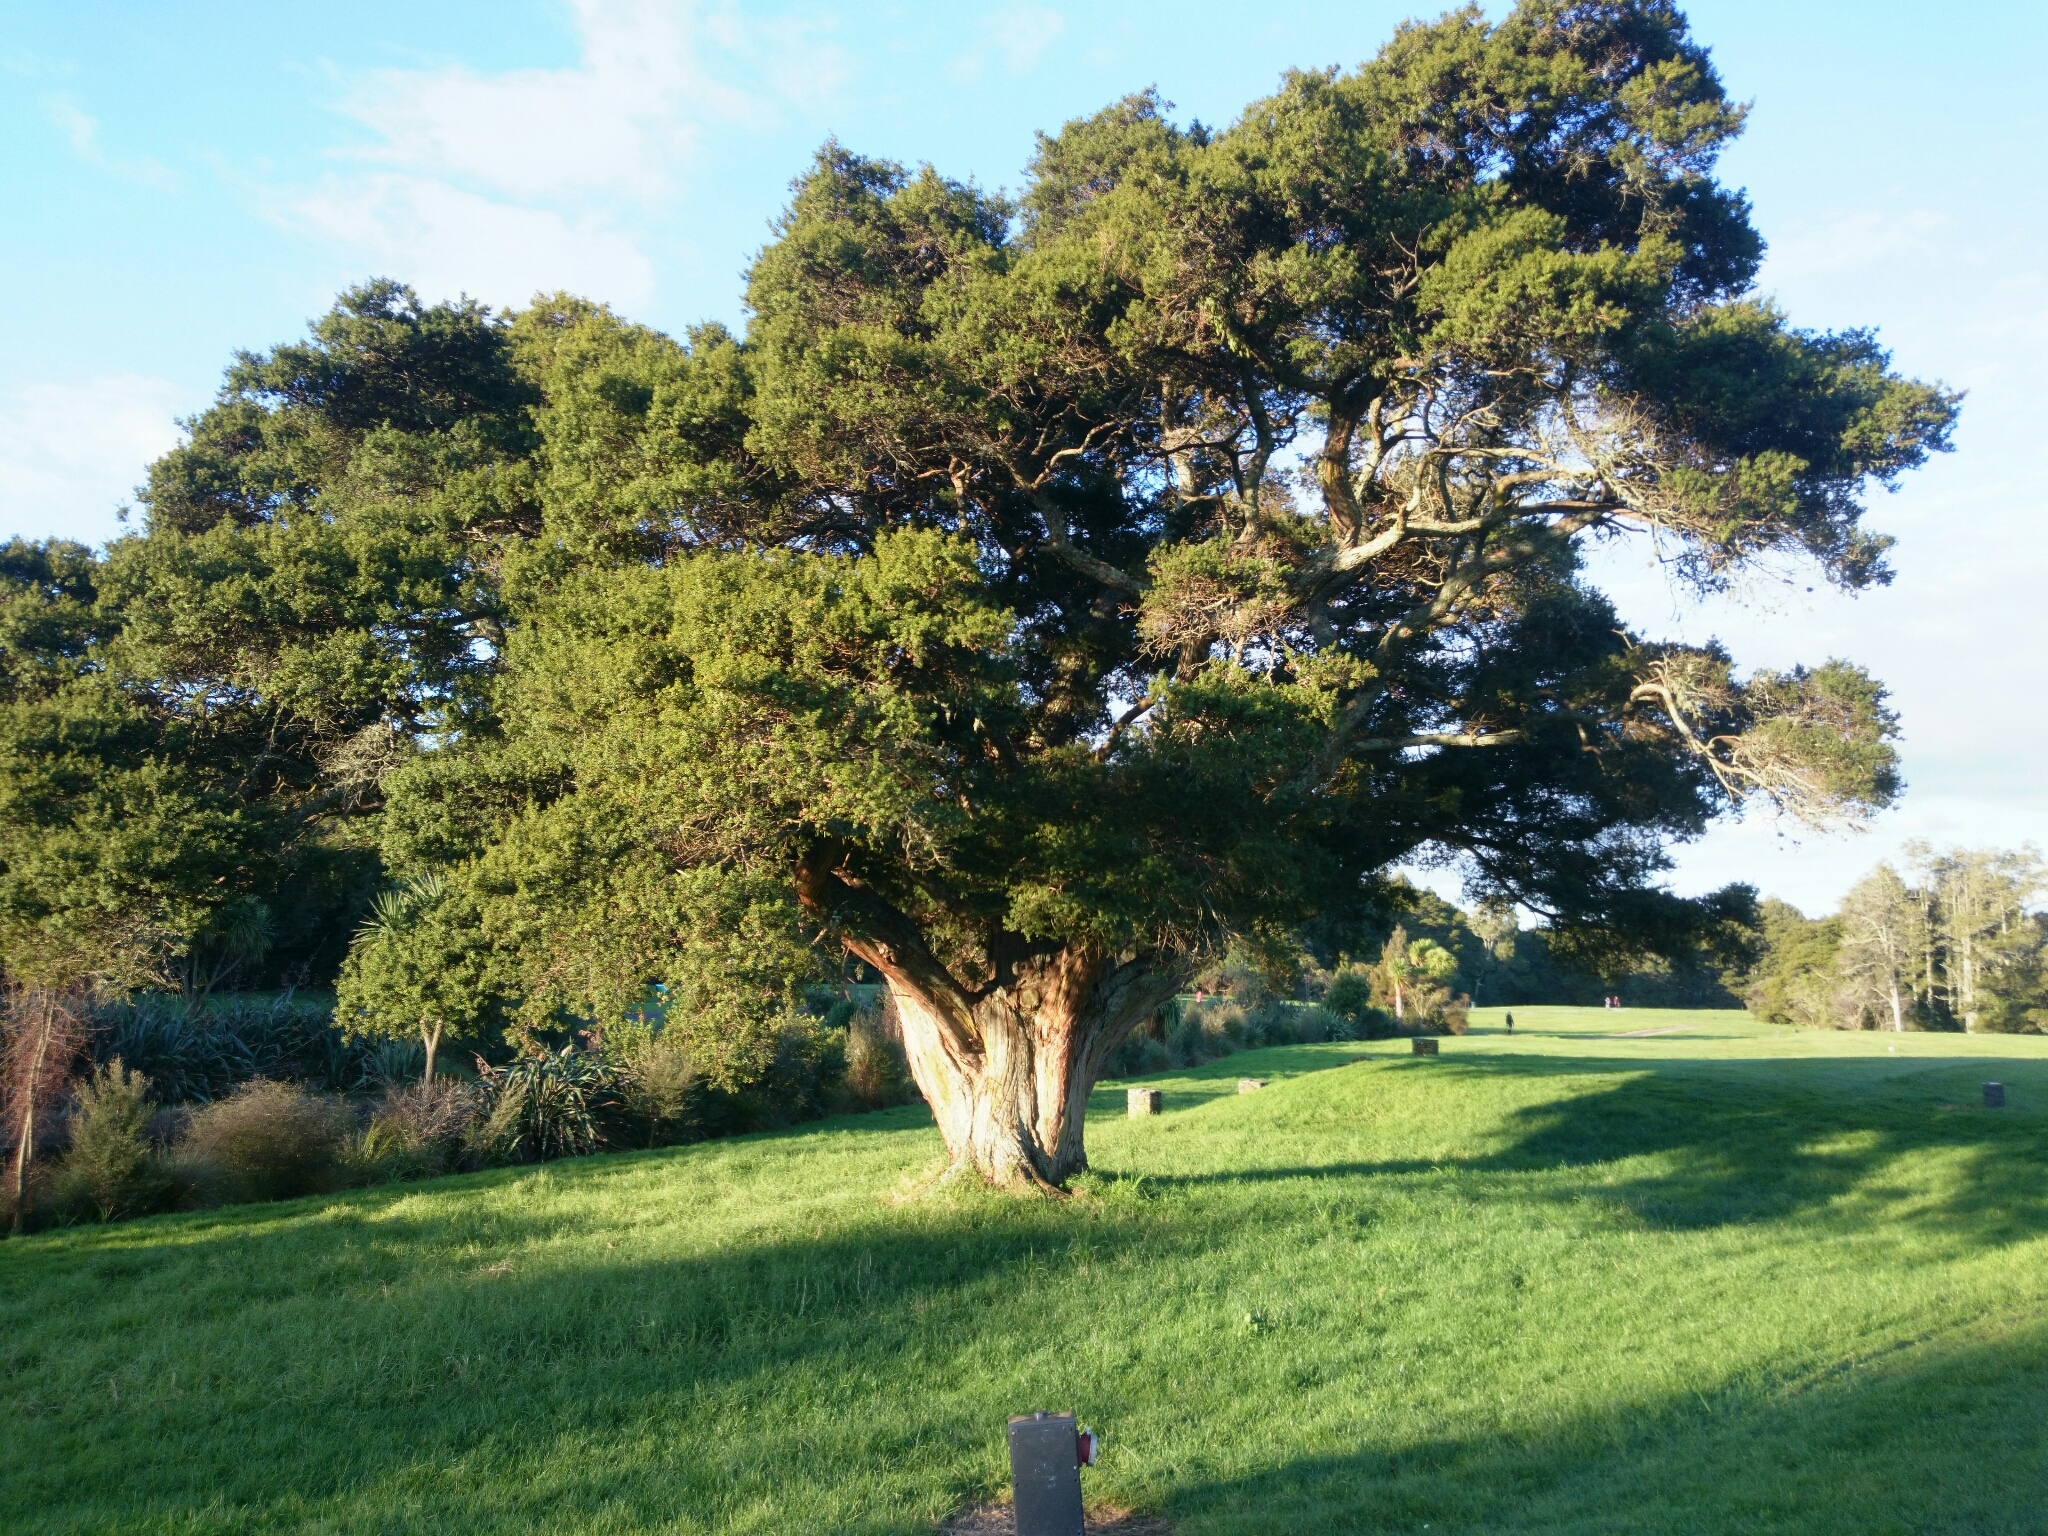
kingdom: Plantae
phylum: Tracheophyta
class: Pinopsida
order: Pinales
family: Podocarpaceae
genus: Podocarpus
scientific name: Podocarpus totara
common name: Totara
